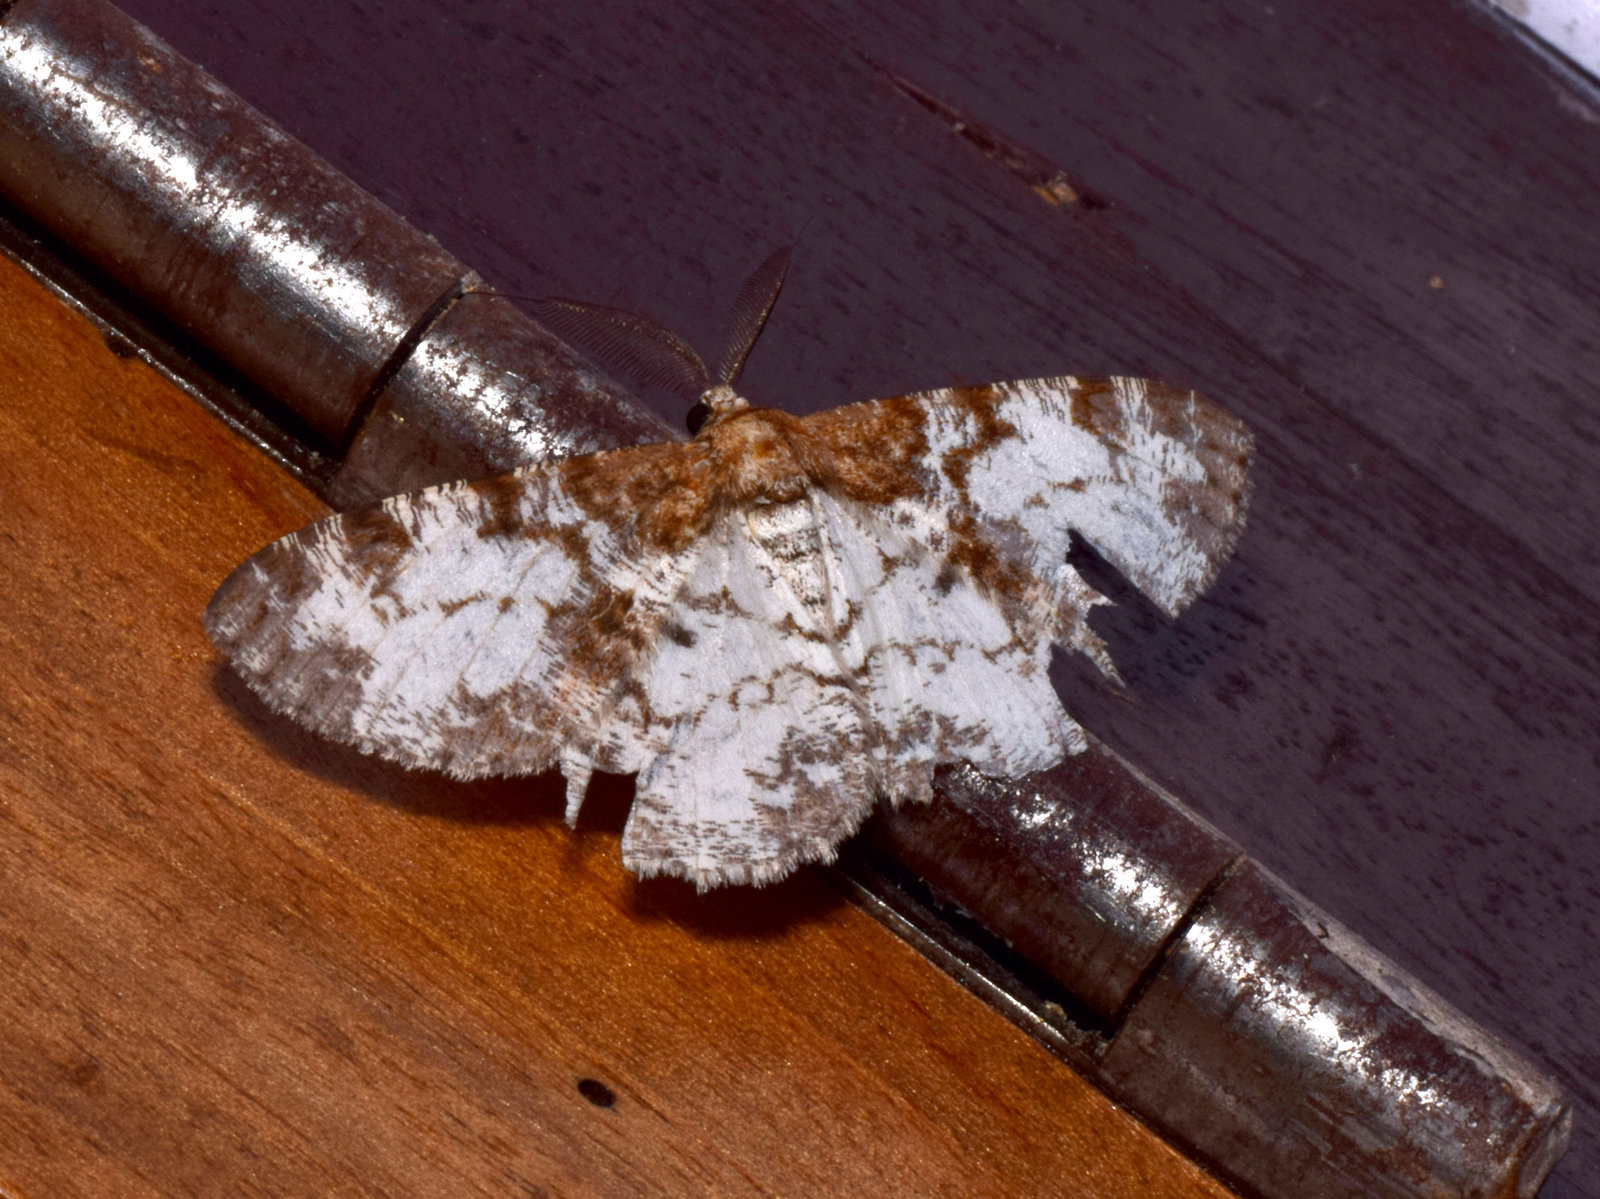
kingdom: Animalia
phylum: Arthropoda
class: Insecta
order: Lepidoptera
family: Geometridae
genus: Hypomecis
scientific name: Hypomecis oblivia
